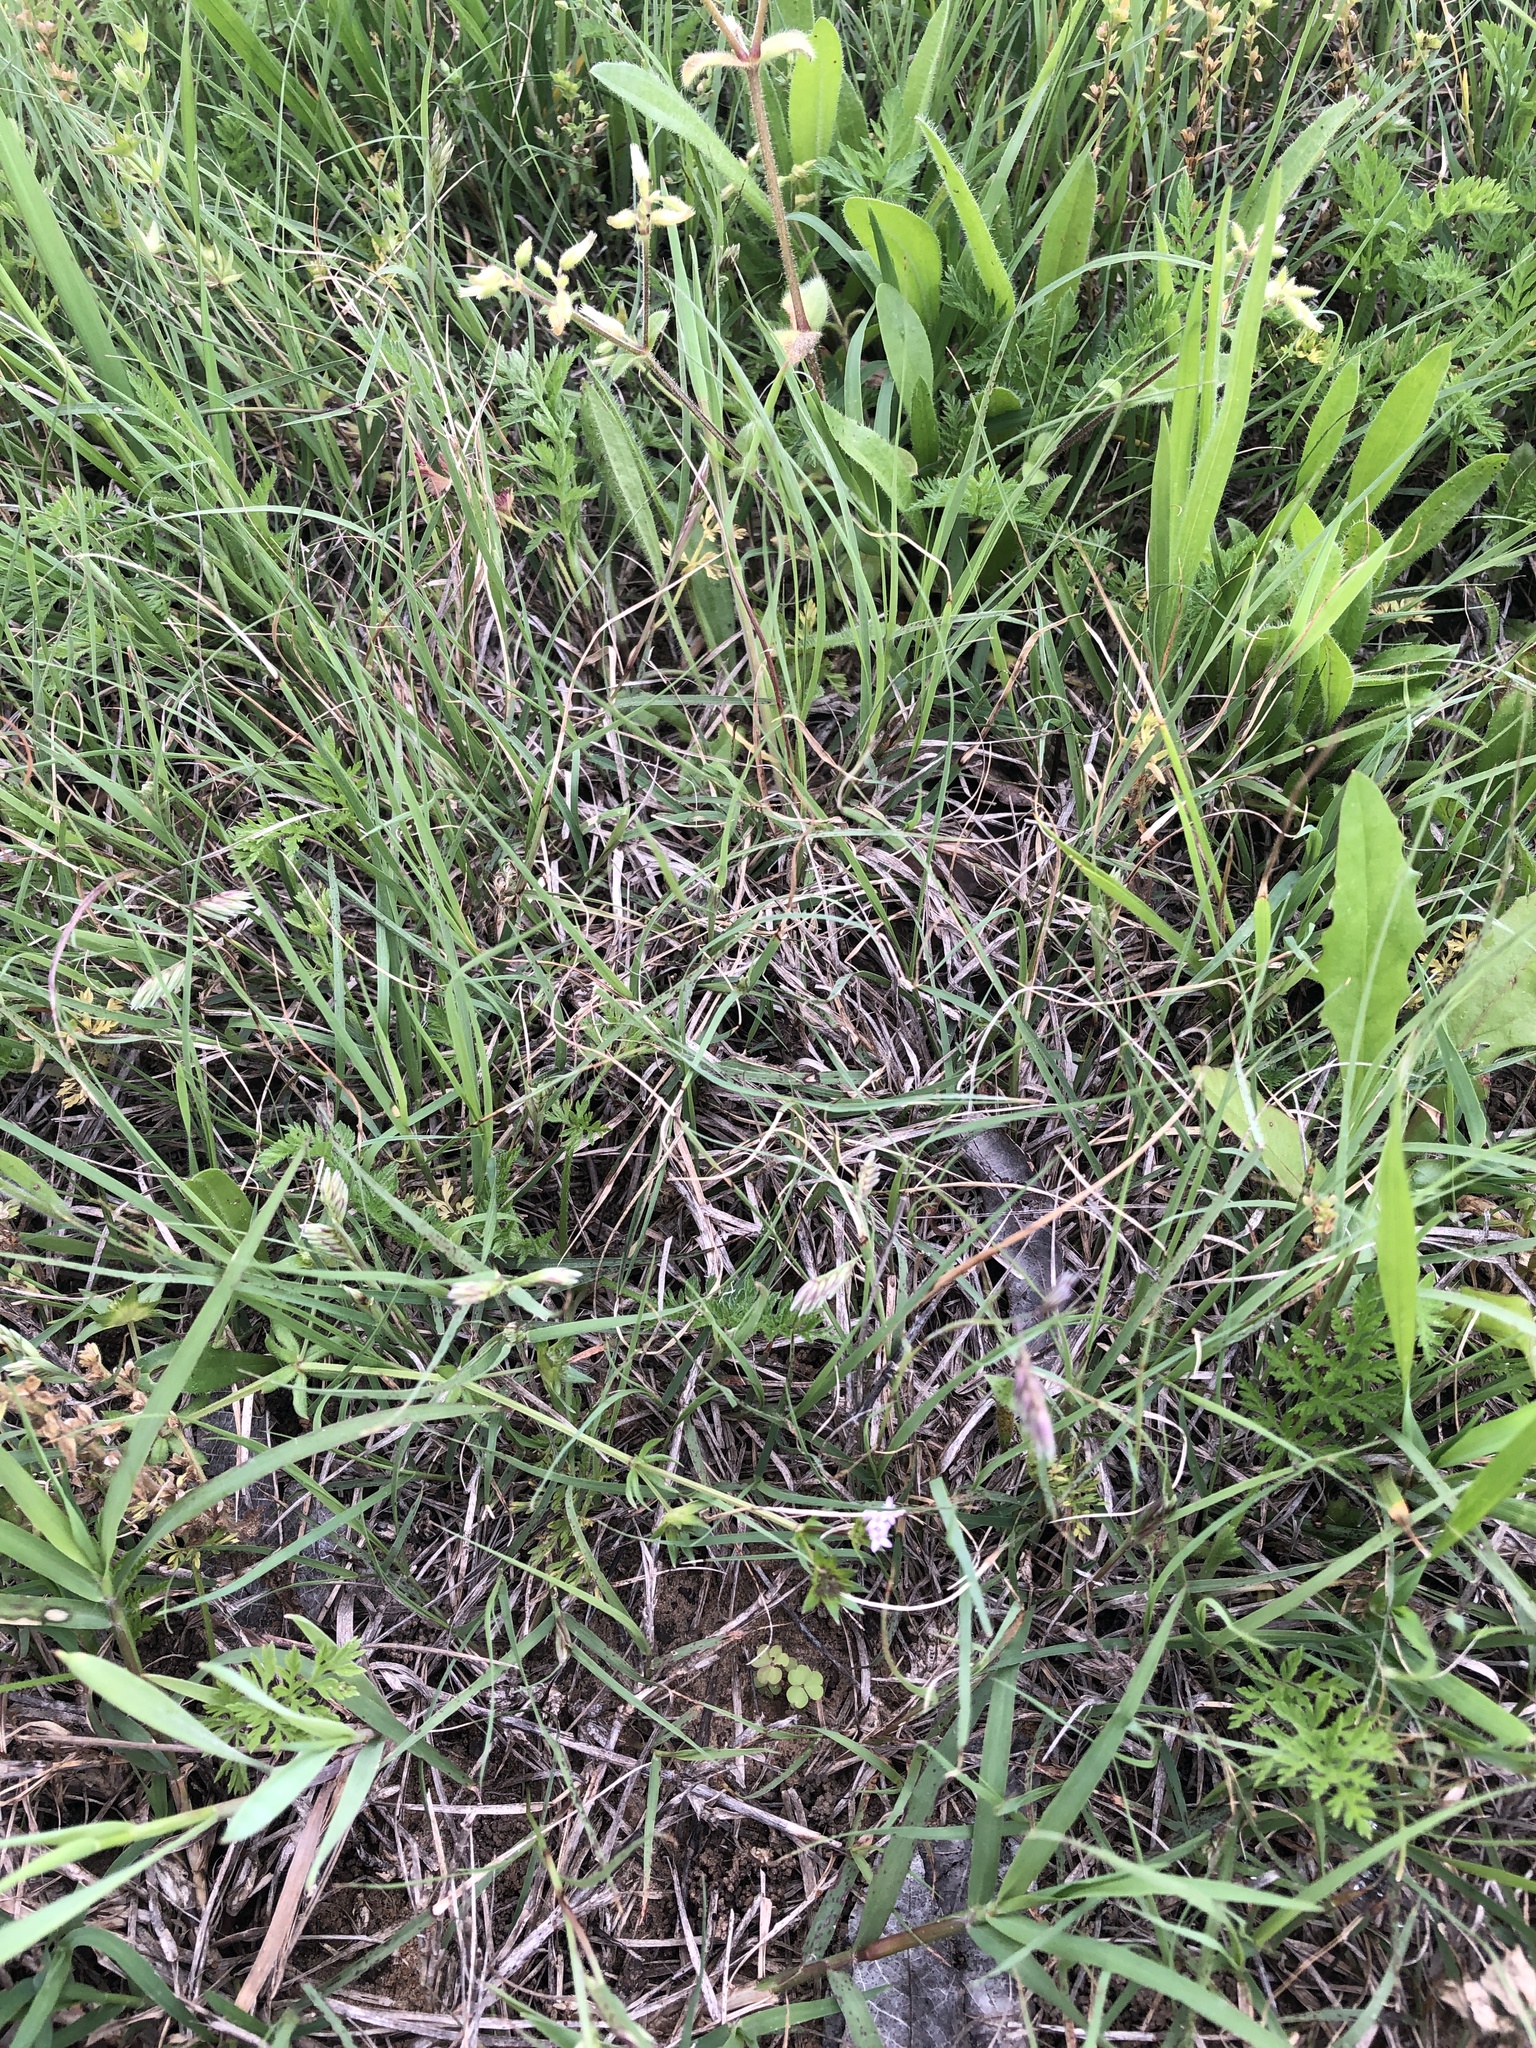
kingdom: Plantae
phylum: Tracheophyta
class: Liliopsida
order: Poales
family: Poaceae
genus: Bouteloua
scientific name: Bouteloua dactyloides
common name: Buffalo grass
